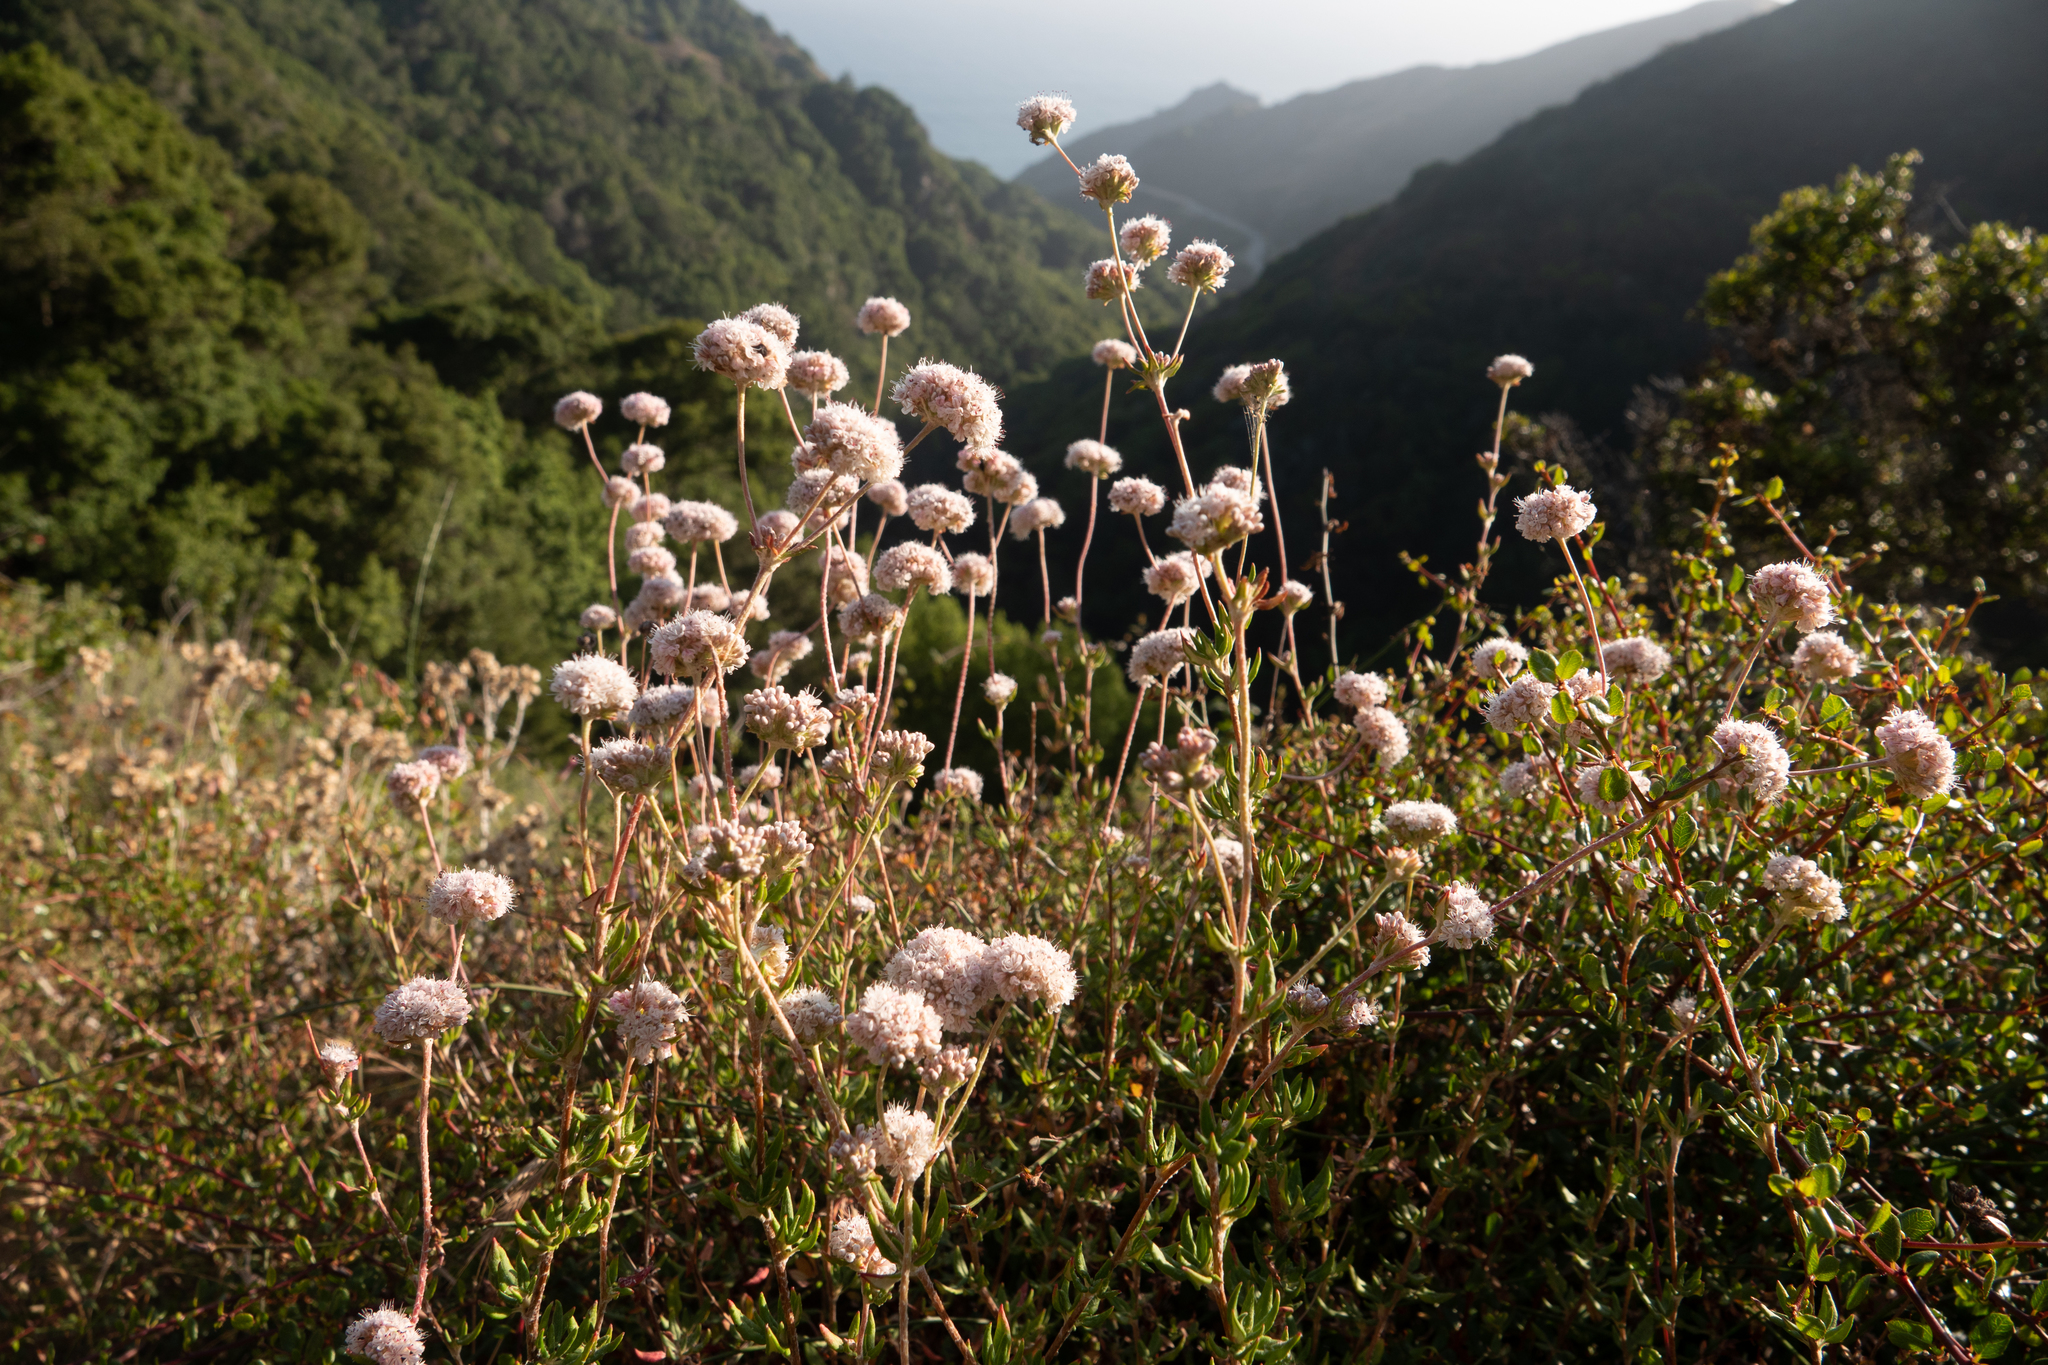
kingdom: Plantae
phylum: Tracheophyta
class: Magnoliopsida
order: Caryophyllales
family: Polygonaceae
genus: Eriogonum
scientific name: Eriogonum fasciculatum
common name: California wild buckwheat
